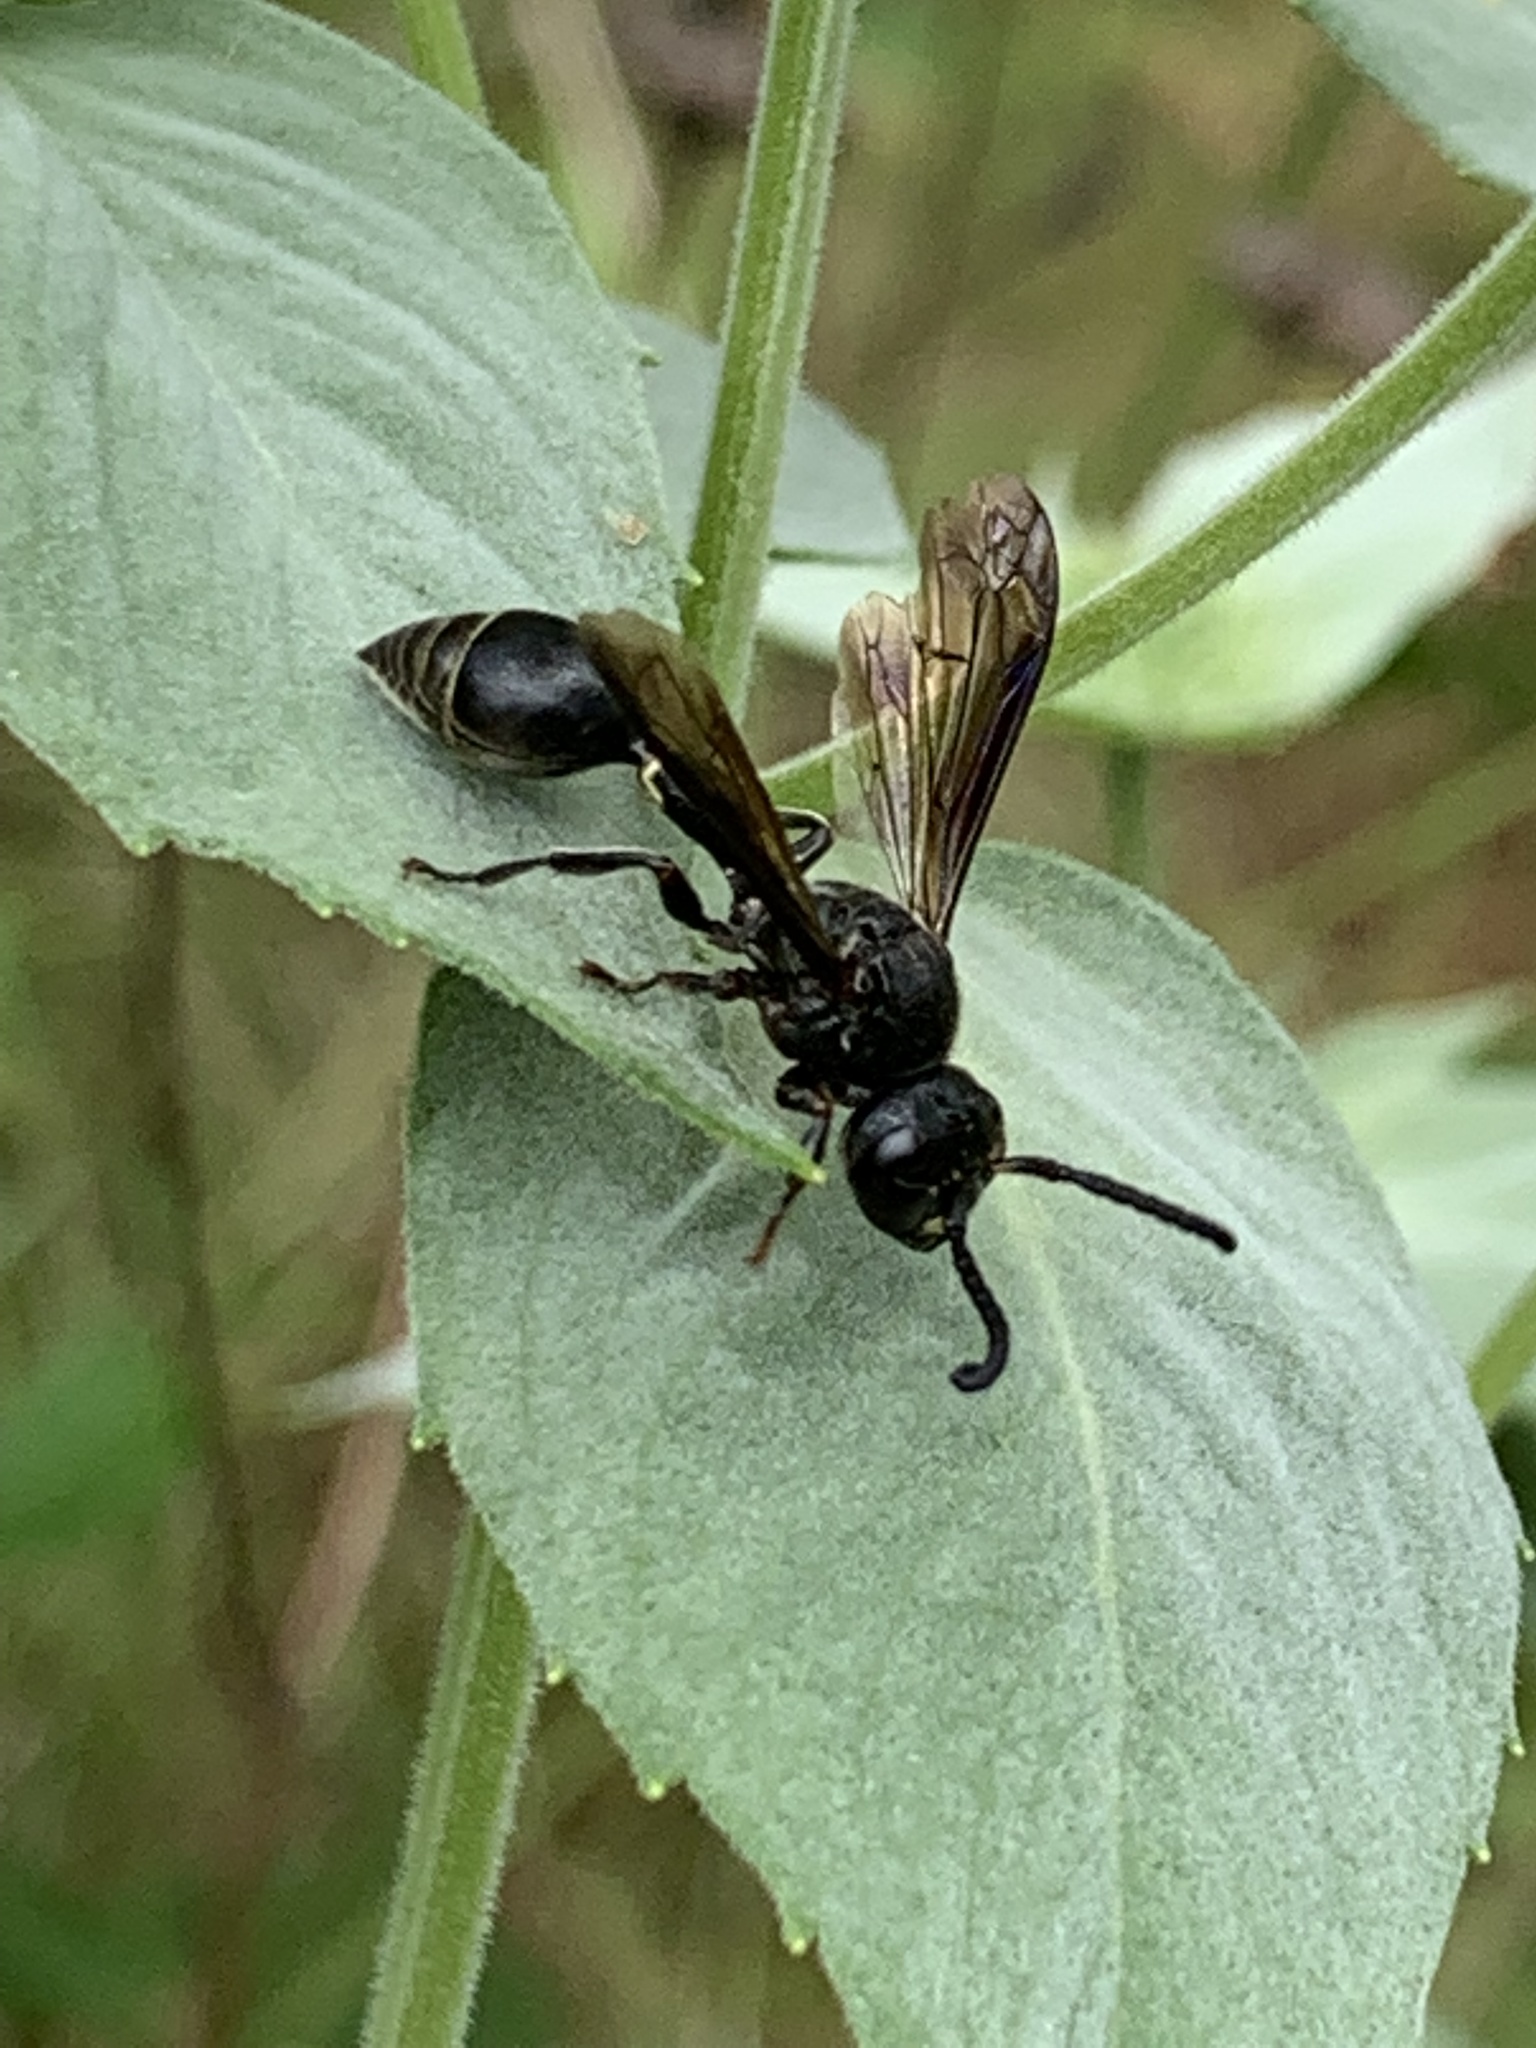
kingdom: Animalia
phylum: Arthropoda
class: Insecta
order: Hymenoptera
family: Eumenidae
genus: Zethus
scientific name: Zethus spinipes
